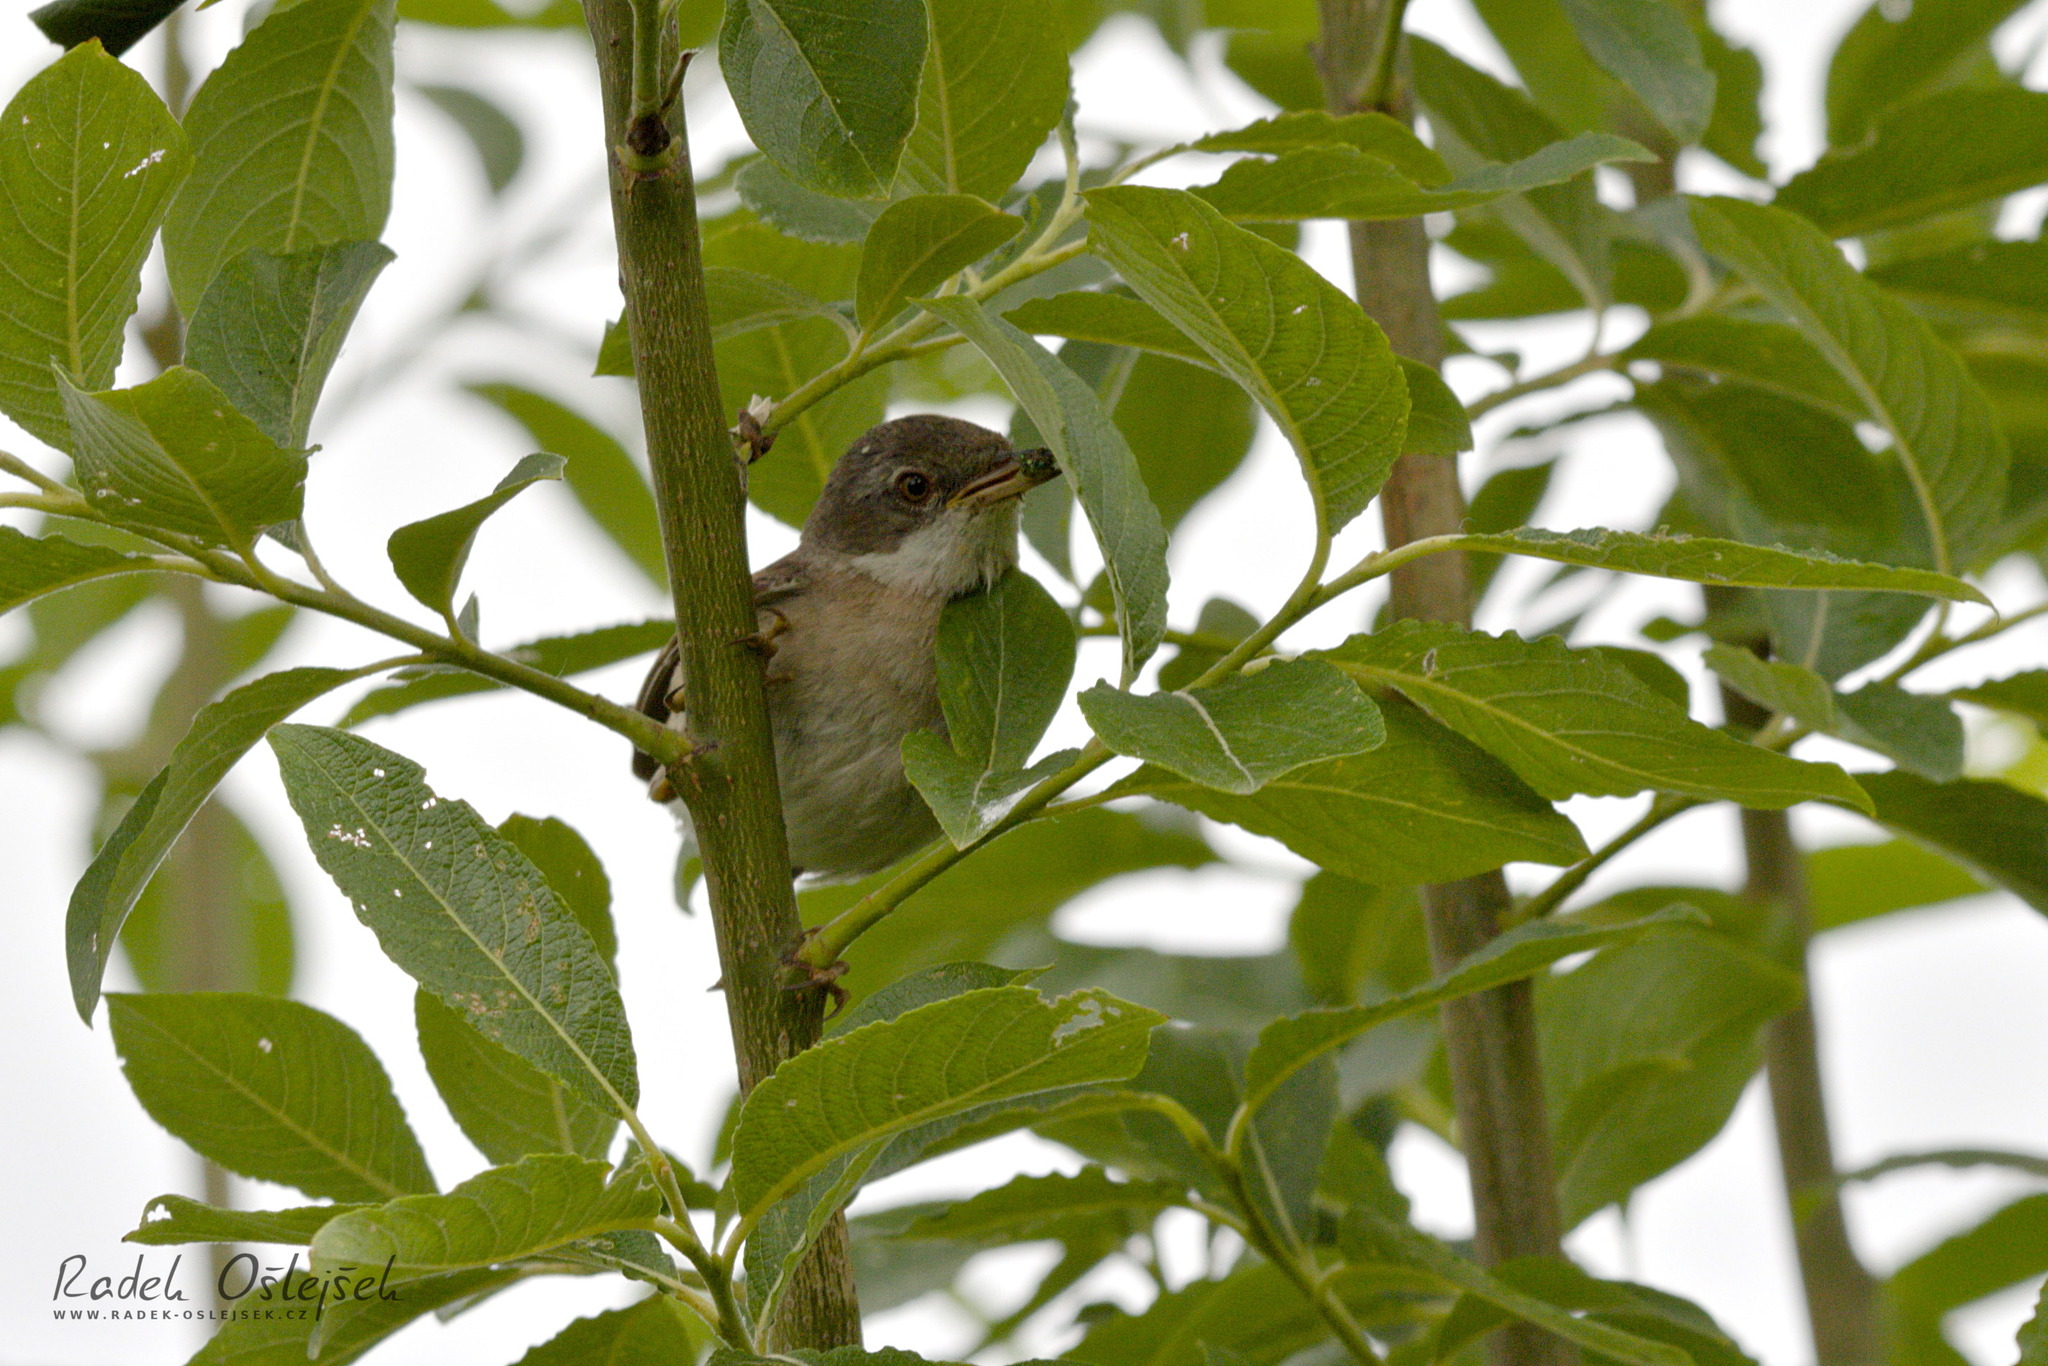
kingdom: Animalia
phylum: Chordata
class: Aves
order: Passeriformes
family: Sylviidae
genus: Sylvia
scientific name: Sylvia communis
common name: Common whitethroat
